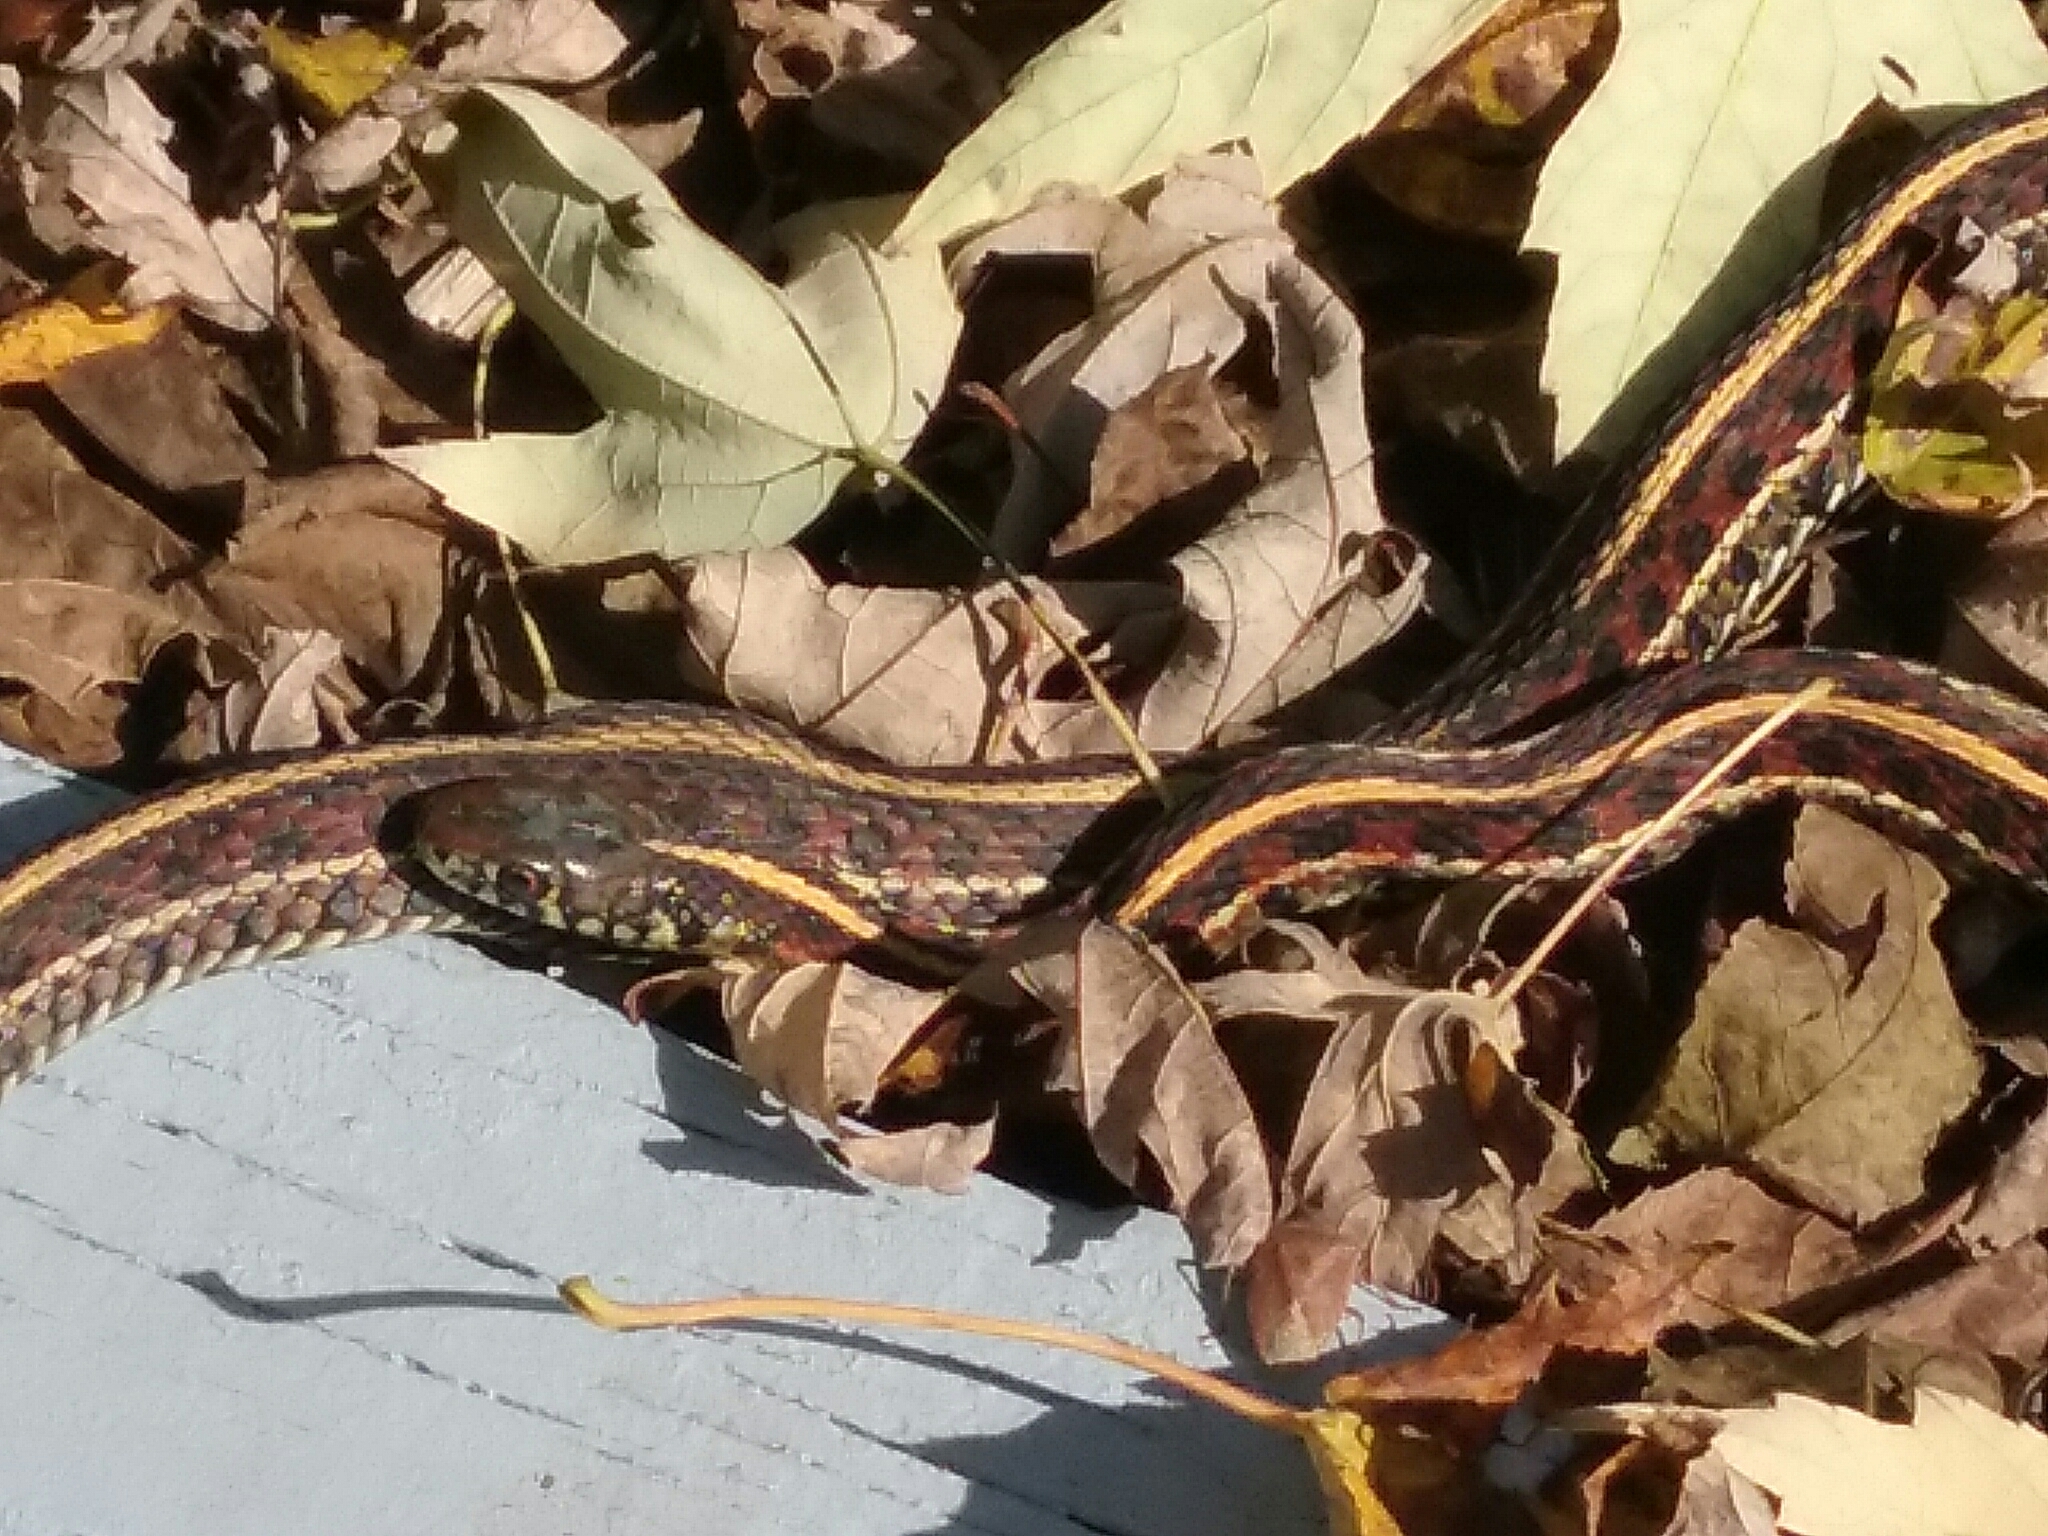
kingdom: Animalia
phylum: Chordata
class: Squamata
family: Colubridae
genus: Thamnophis
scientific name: Thamnophis radix
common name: Plains garter snake
